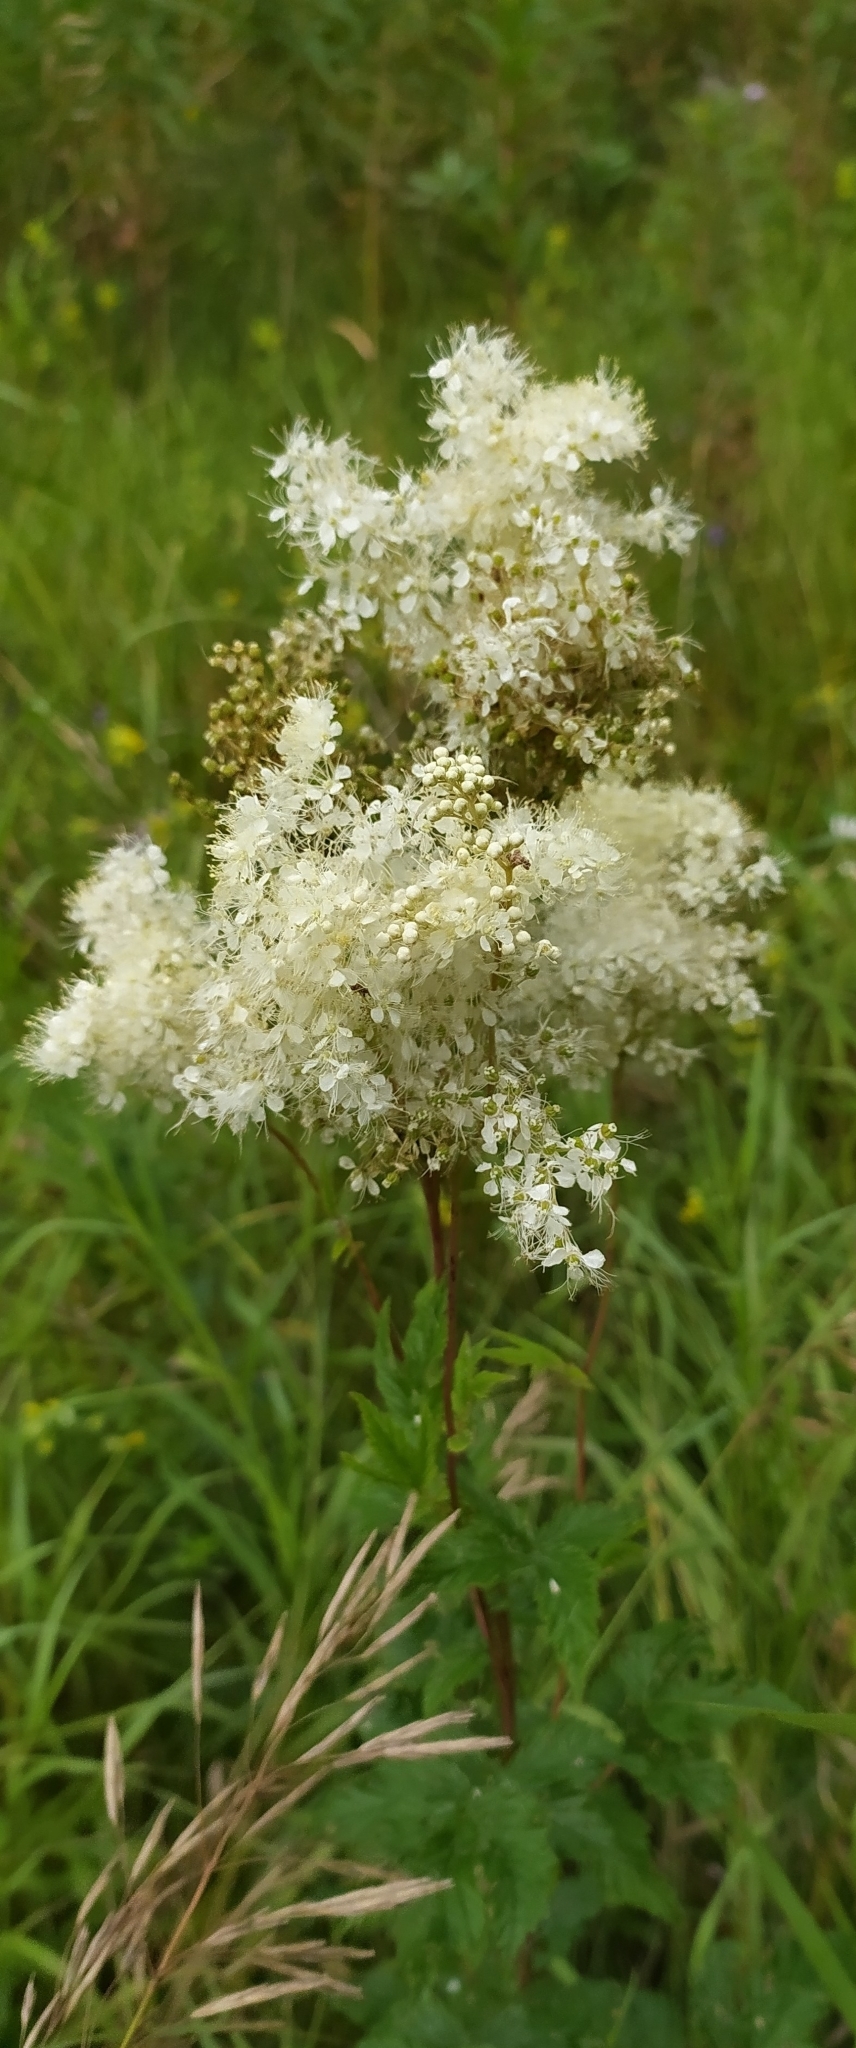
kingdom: Plantae
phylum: Tracheophyta
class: Magnoliopsida
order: Rosales
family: Rosaceae
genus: Filipendula
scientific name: Filipendula ulmaria
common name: Meadowsweet
